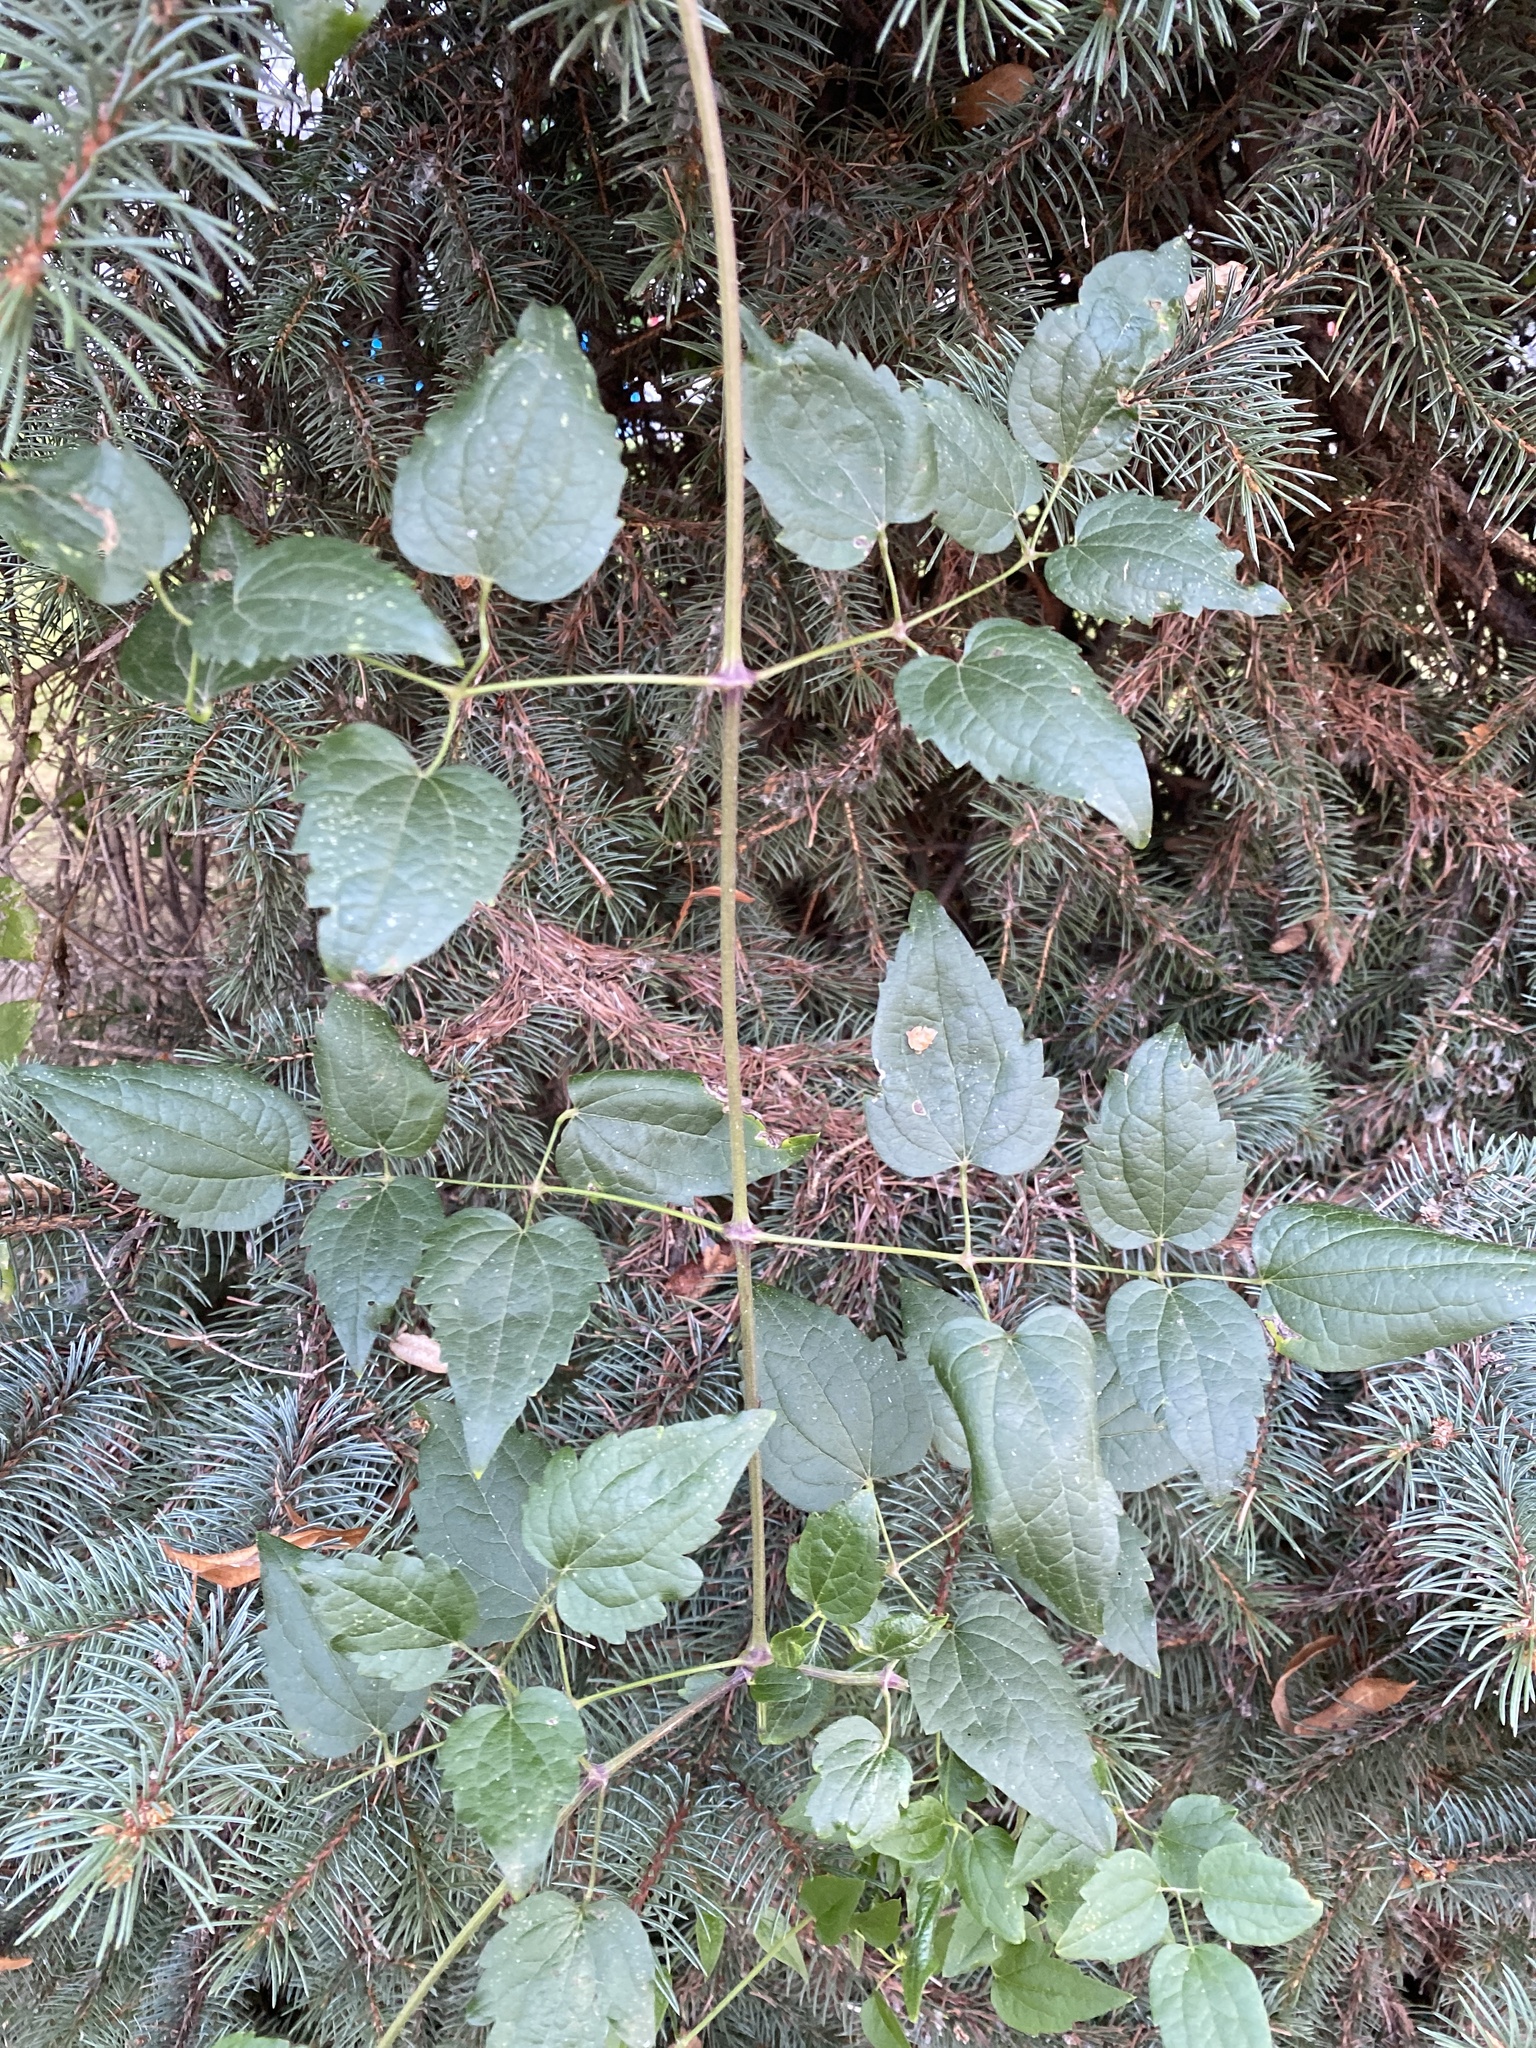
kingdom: Plantae
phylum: Tracheophyta
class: Magnoliopsida
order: Ranunculales
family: Ranunculaceae
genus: Clematis
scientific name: Clematis vitalba
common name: Evergreen clematis
